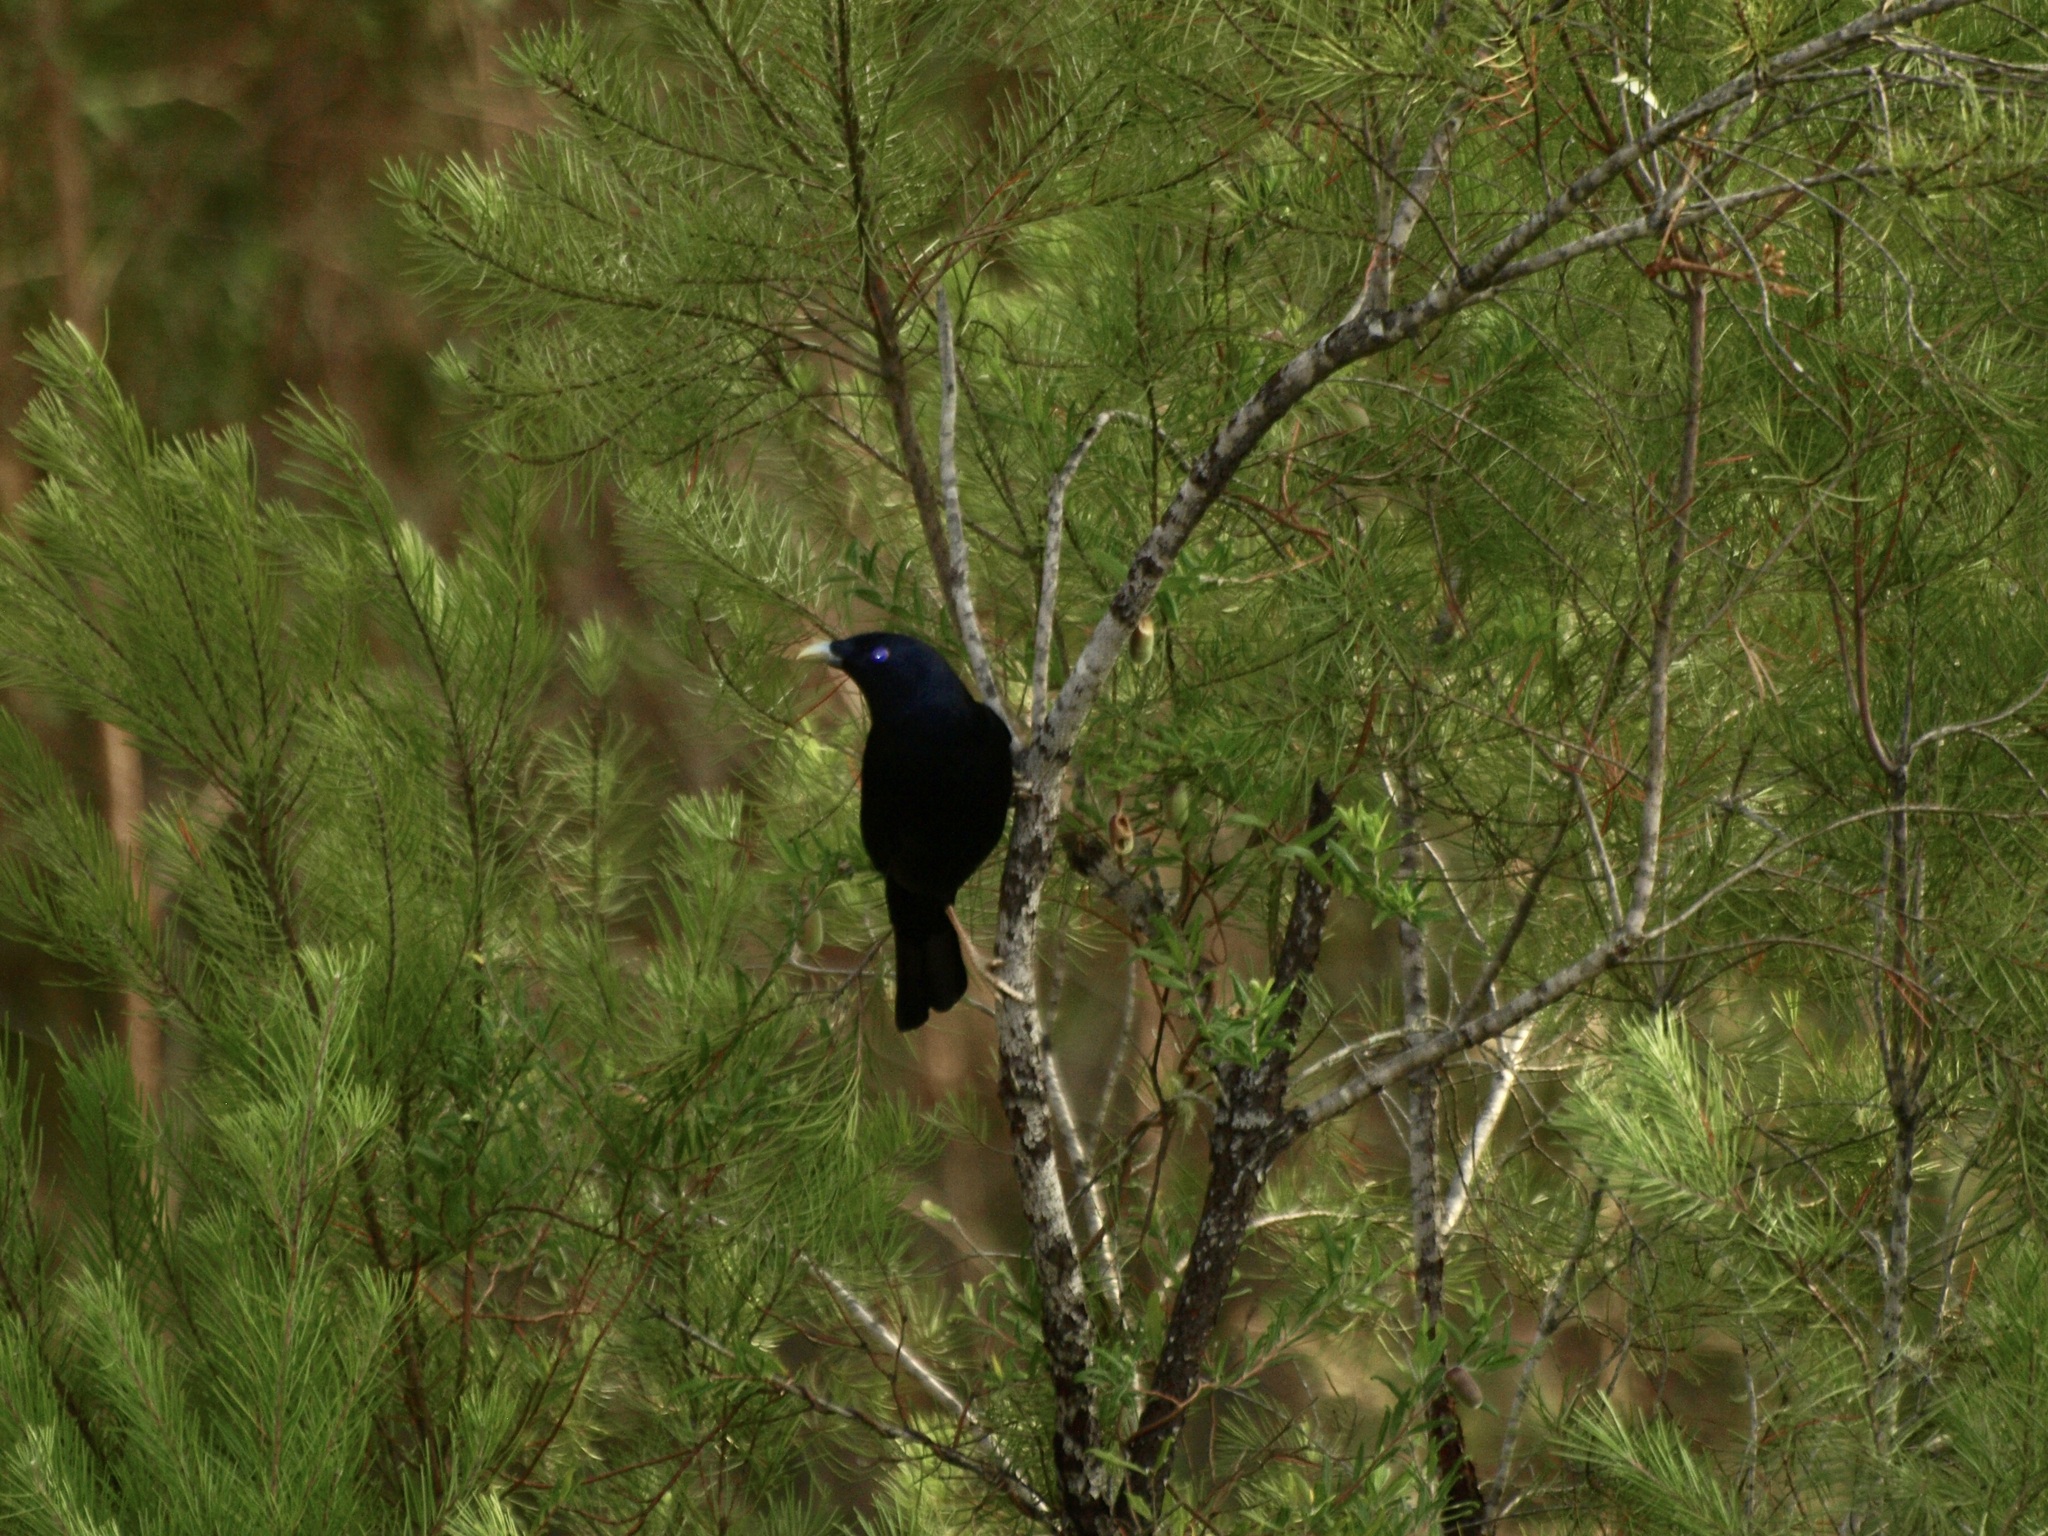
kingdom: Animalia
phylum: Chordata
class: Aves
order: Passeriformes
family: Ptilonorhynchidae
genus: Ptilonorhynchus
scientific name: Ptilonorhynchus violaceus
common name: Satin bowerbird
